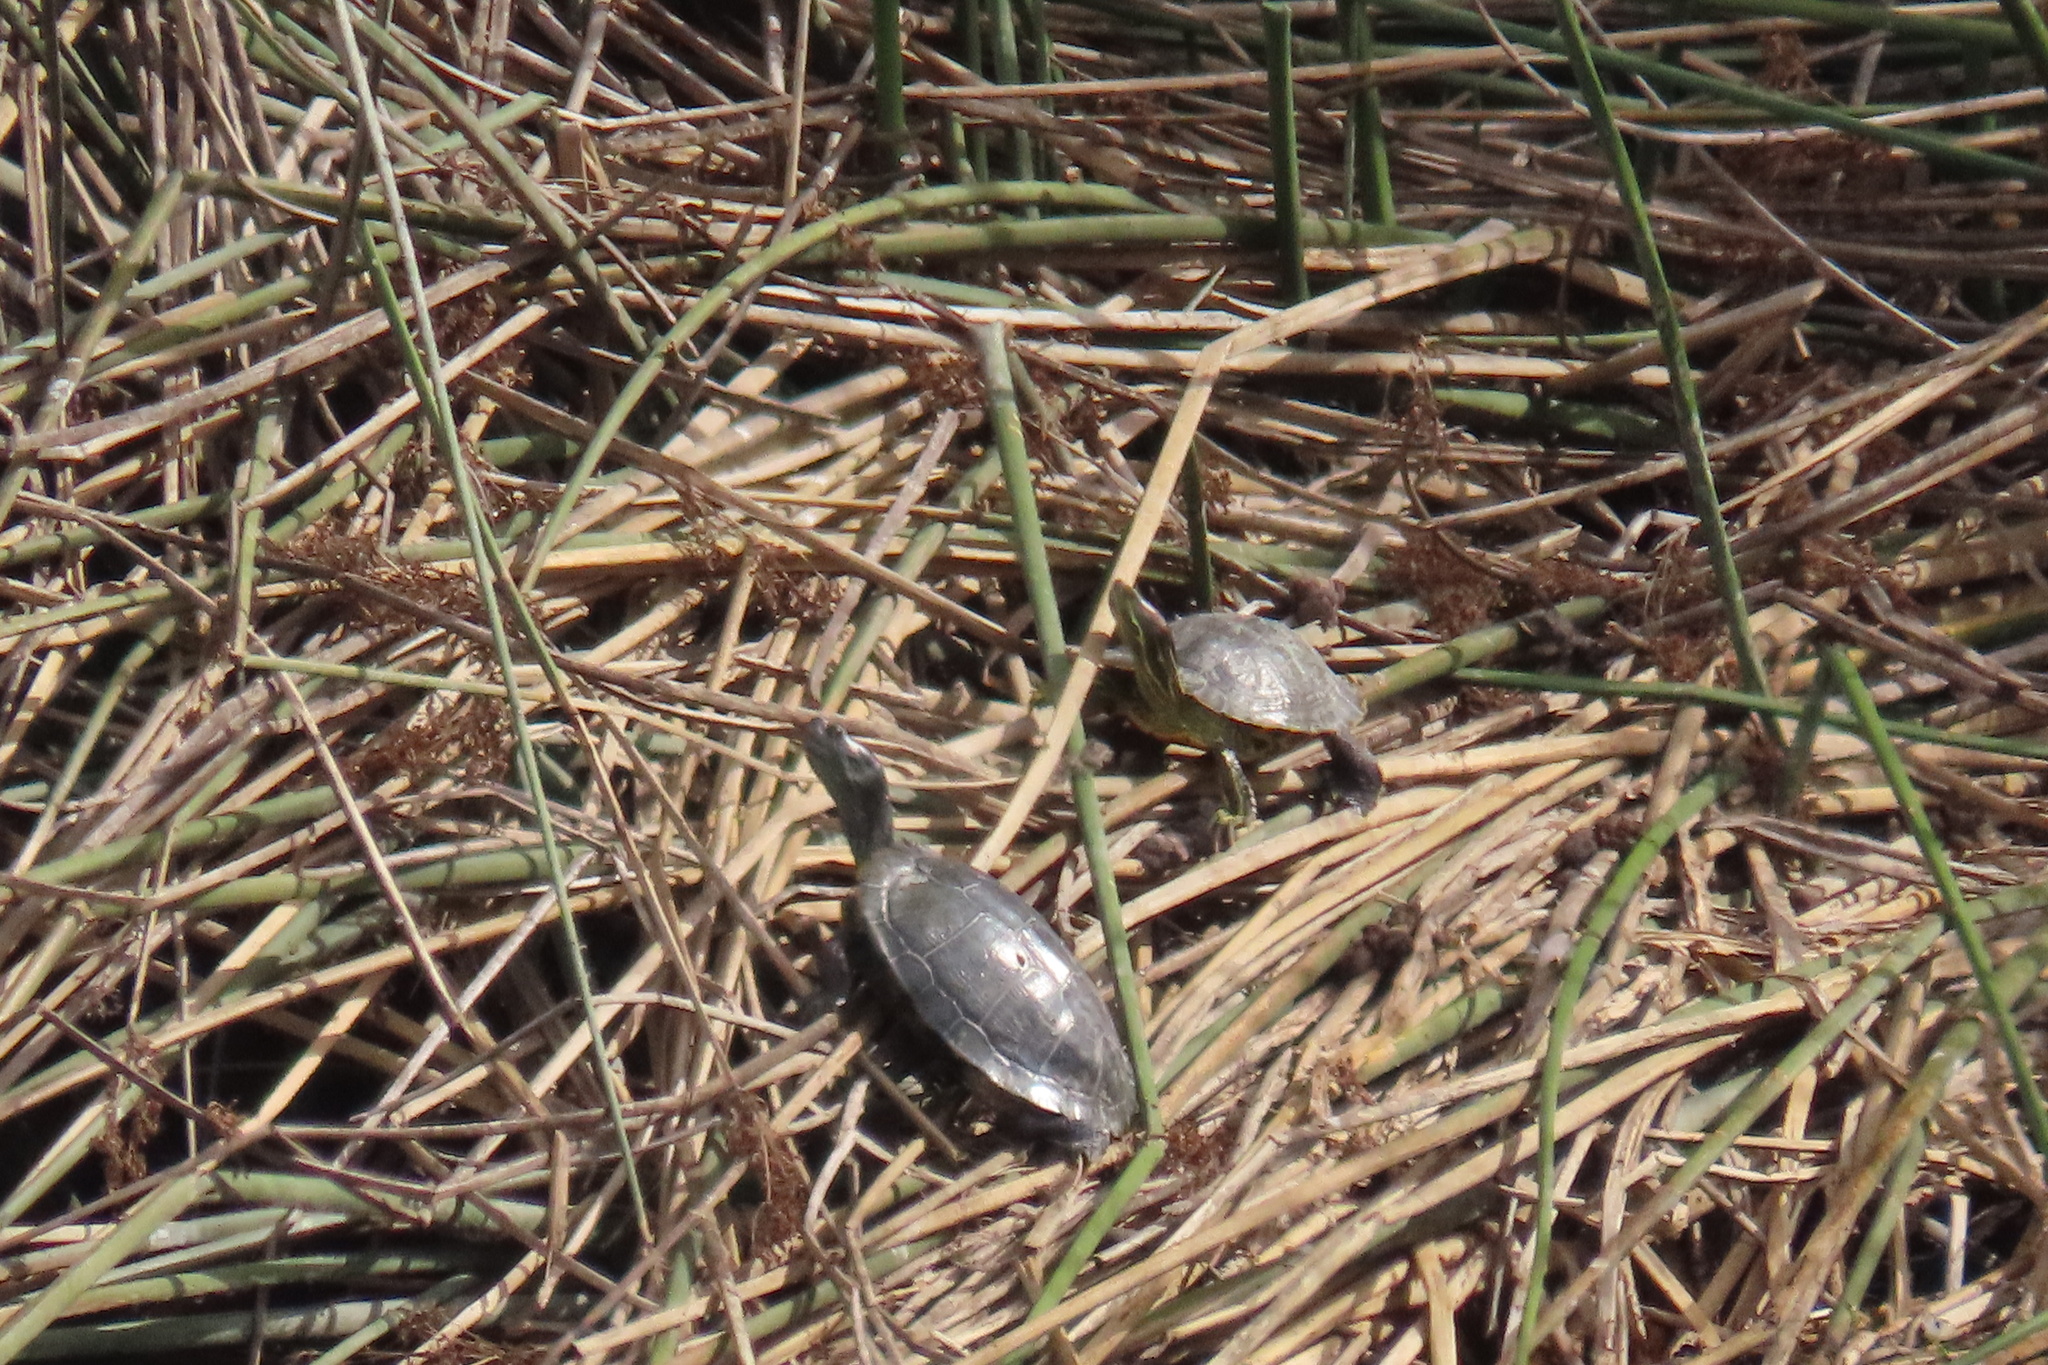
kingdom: Animalia
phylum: Chordata
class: Testudines
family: Emydidae
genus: Trachemys
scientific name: Trachemys scripta
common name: Slider
